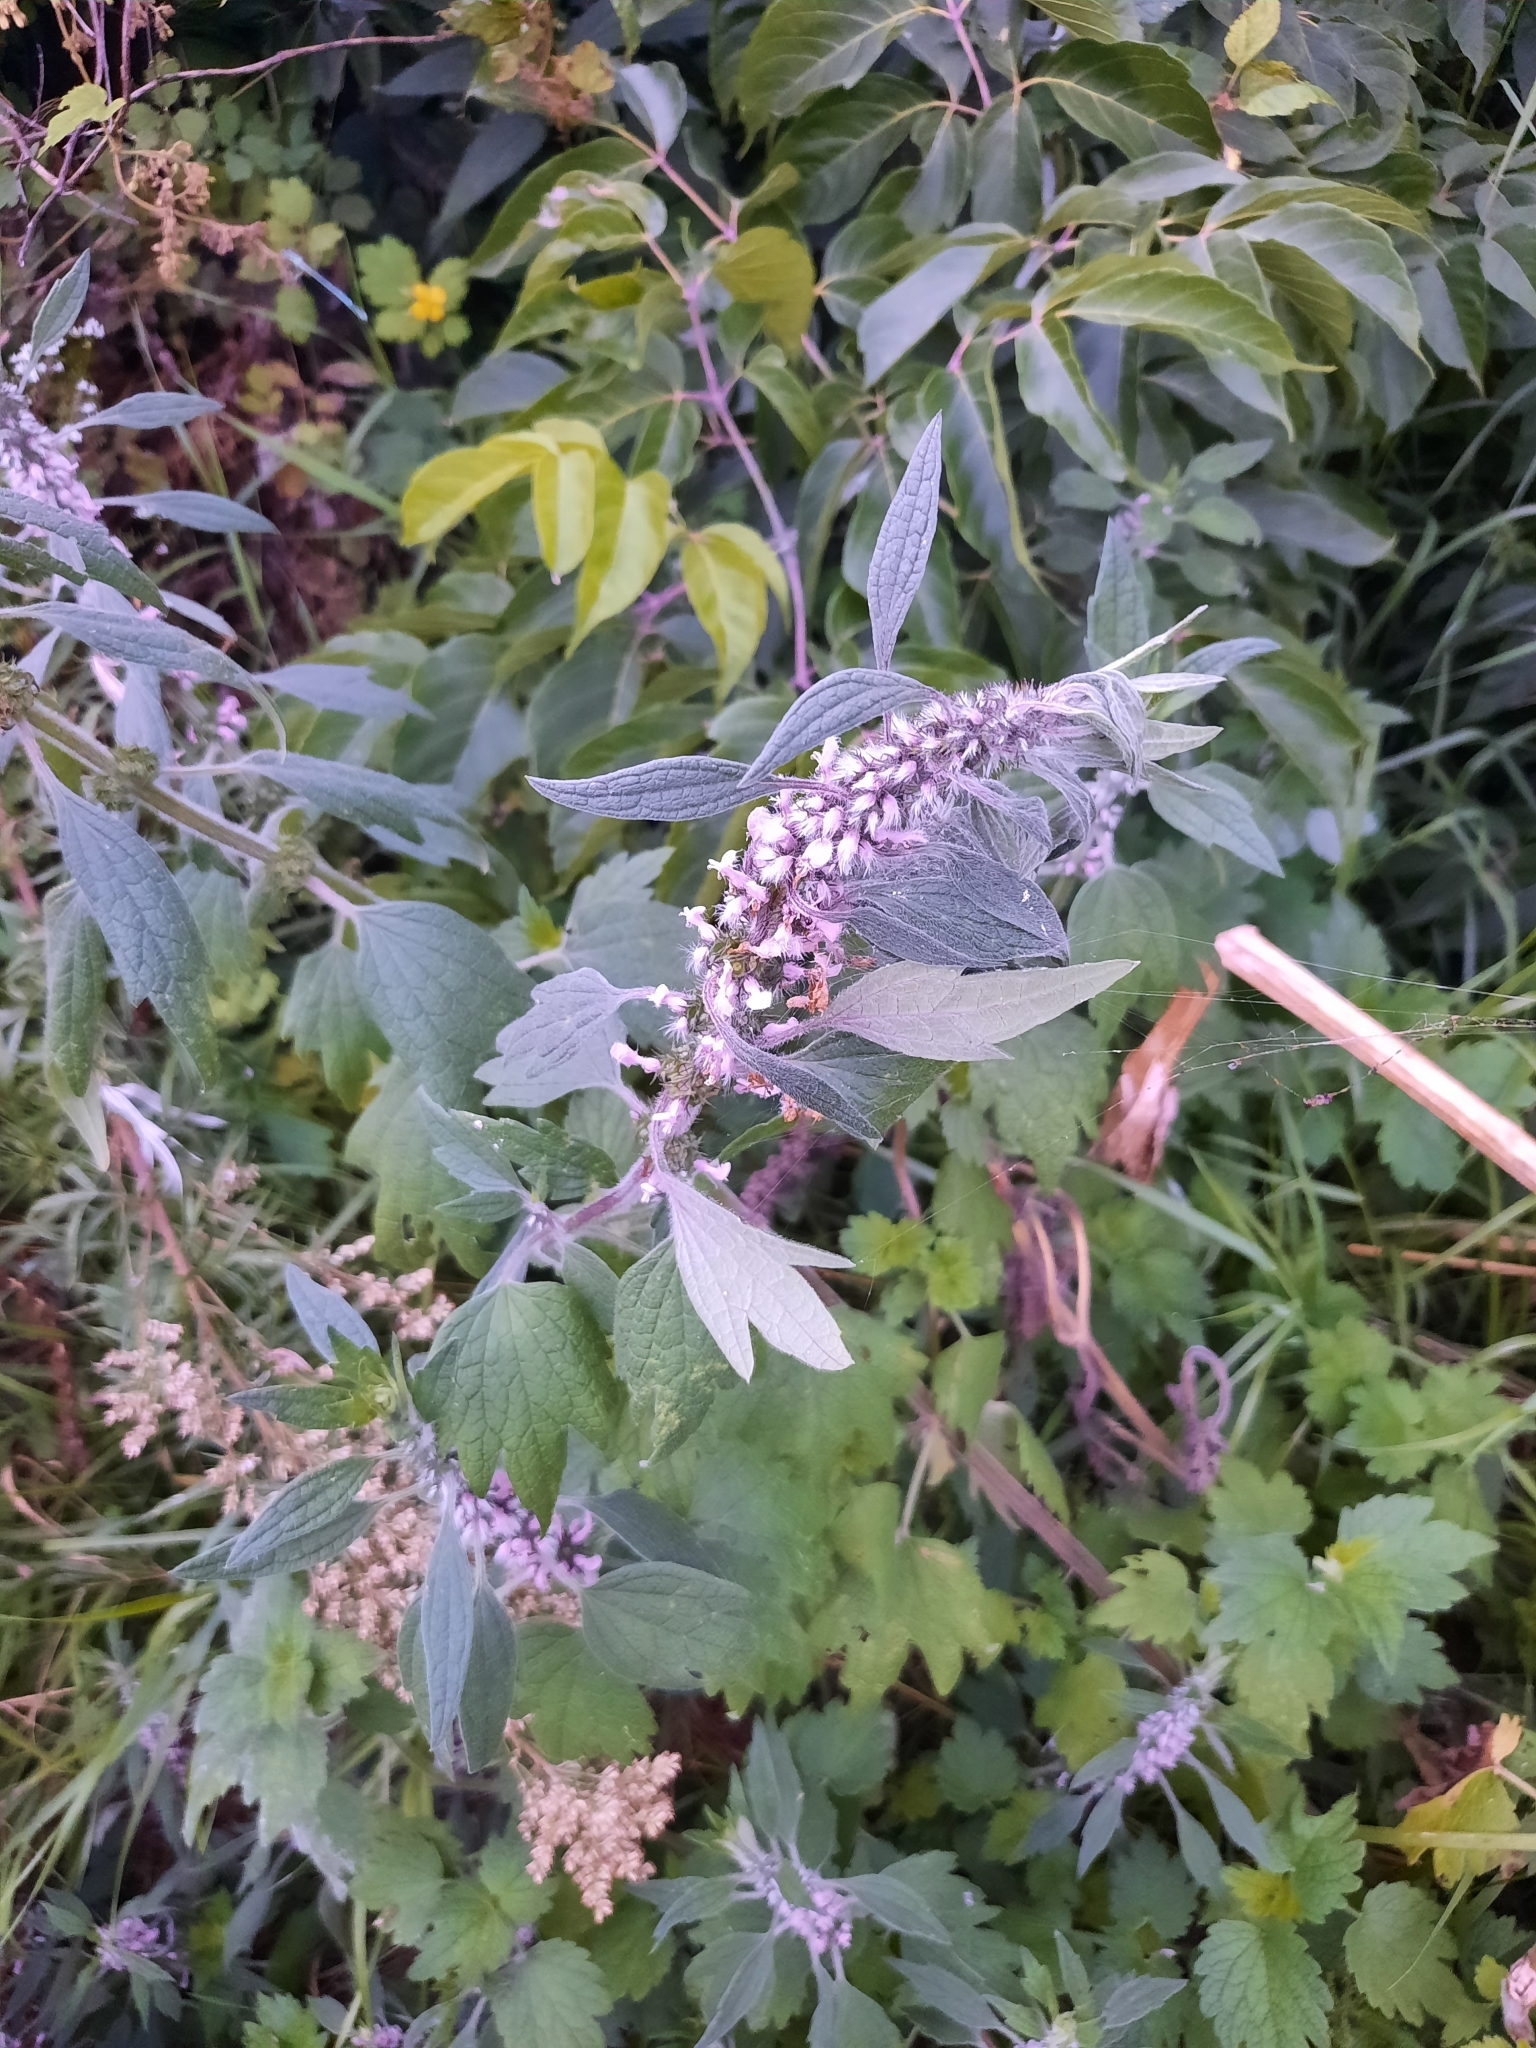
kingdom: Plantae
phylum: Tracheophyta
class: Magnoliopsida
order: Lamiales
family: Lamiaceae
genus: Leonurus
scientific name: Leonurus quinquelobatus
